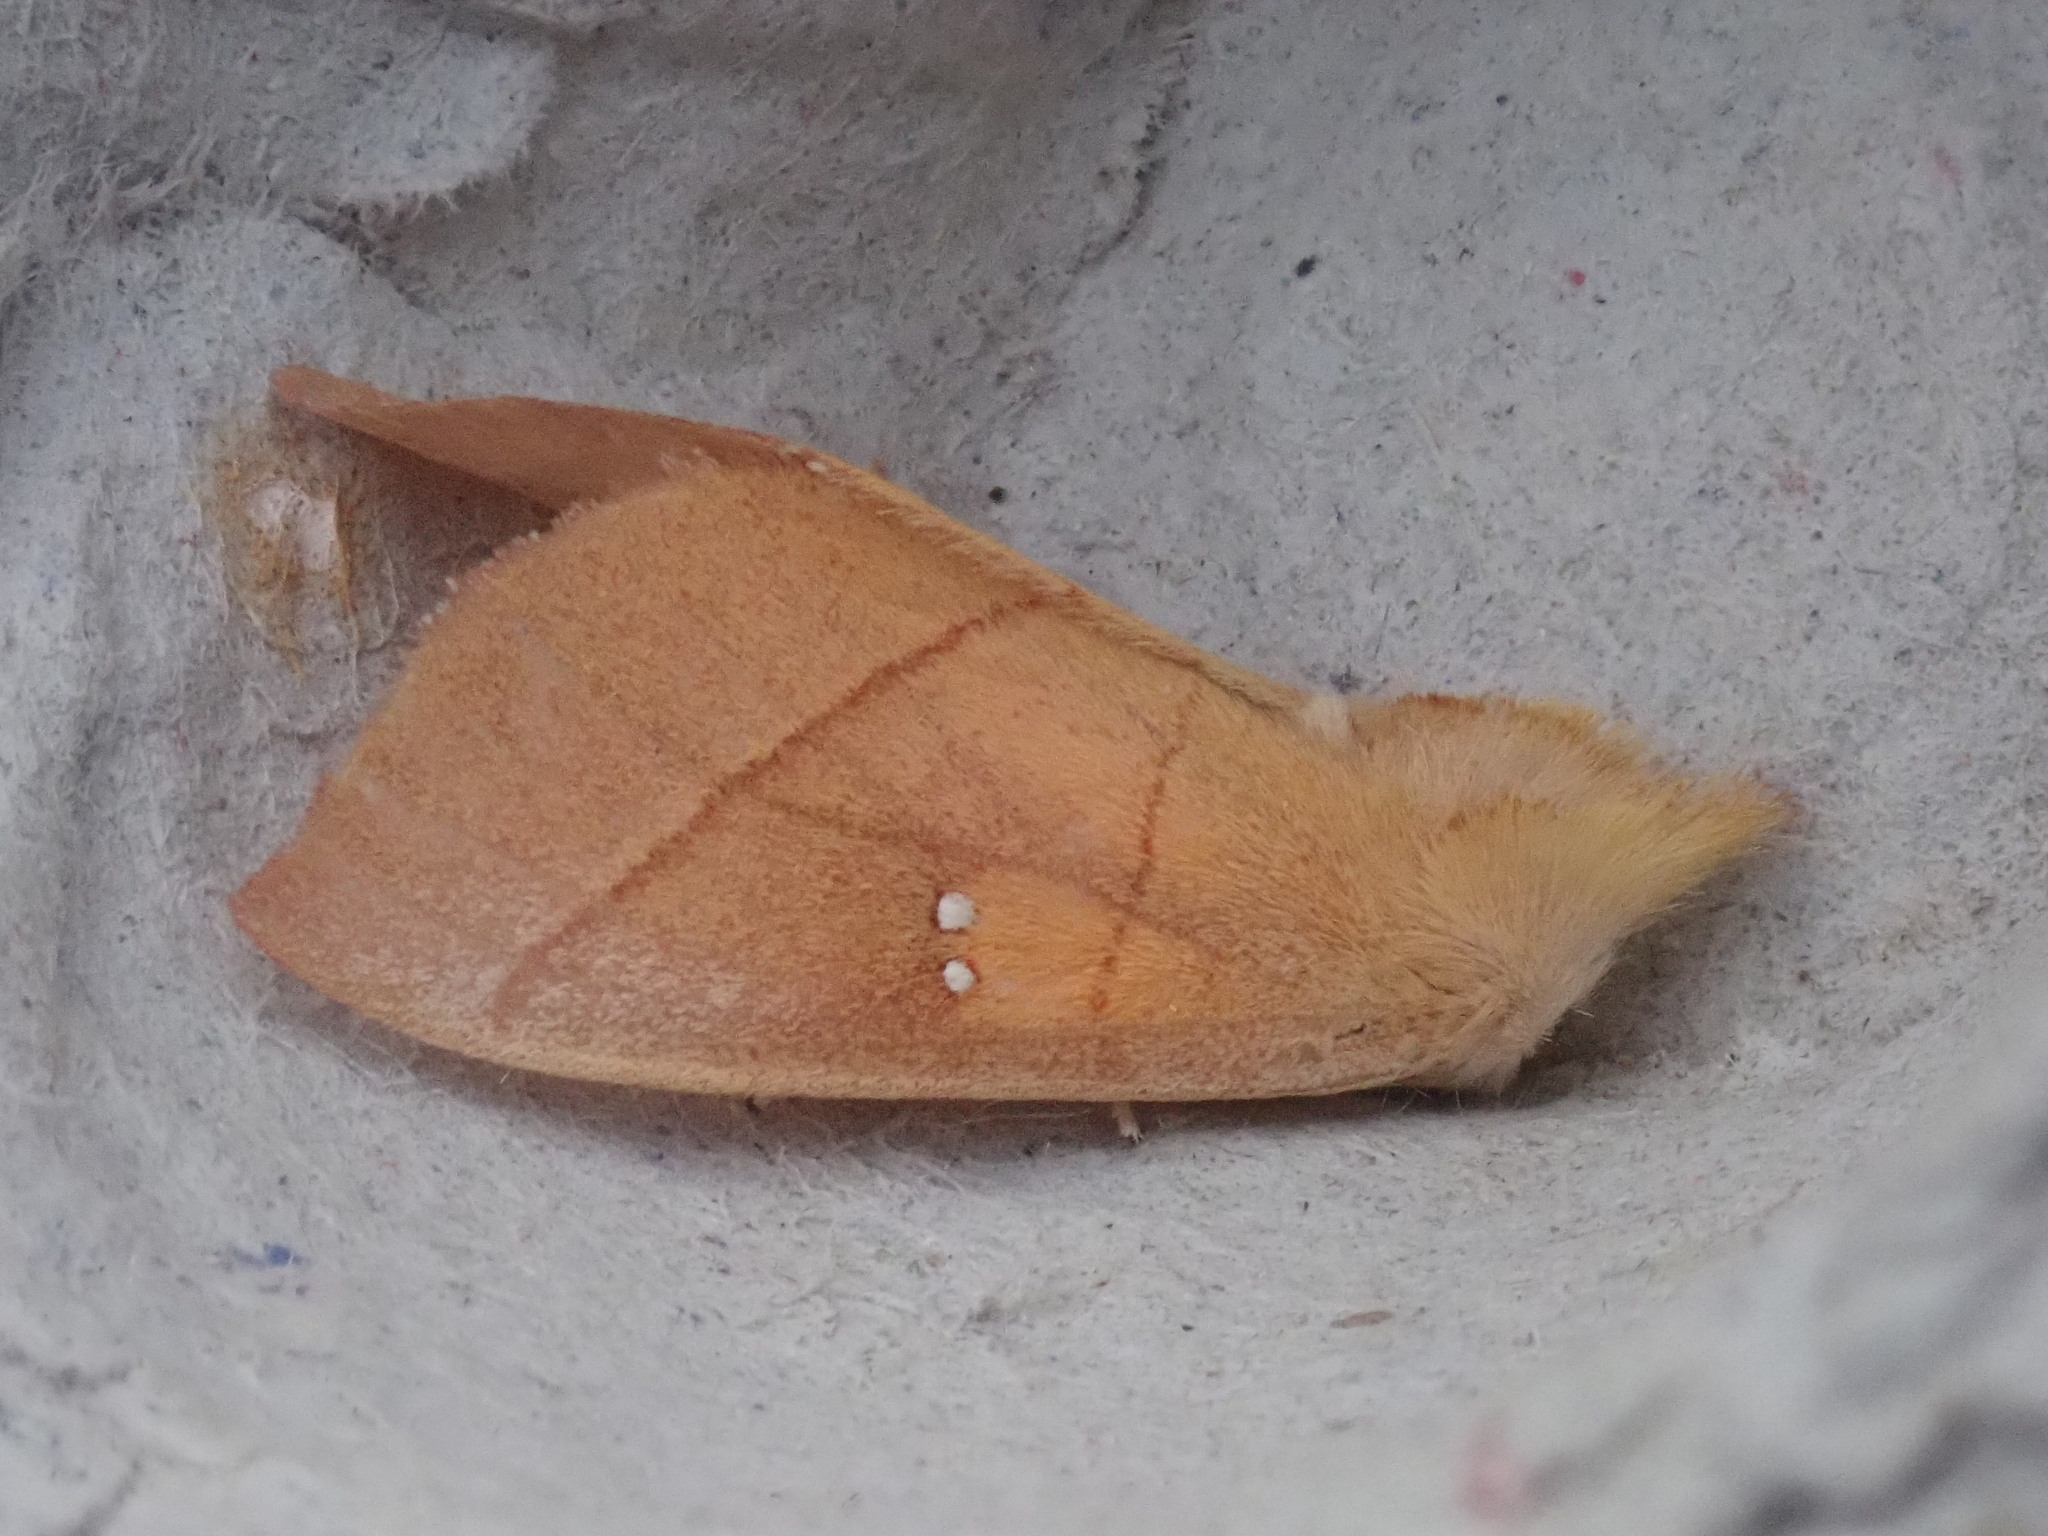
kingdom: Animalia
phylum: Arthropoda
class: Insecta
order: Lepidoptera
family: Notodontidae
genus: Nadata
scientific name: Nadata gibbosa
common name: White-dotted prominent
